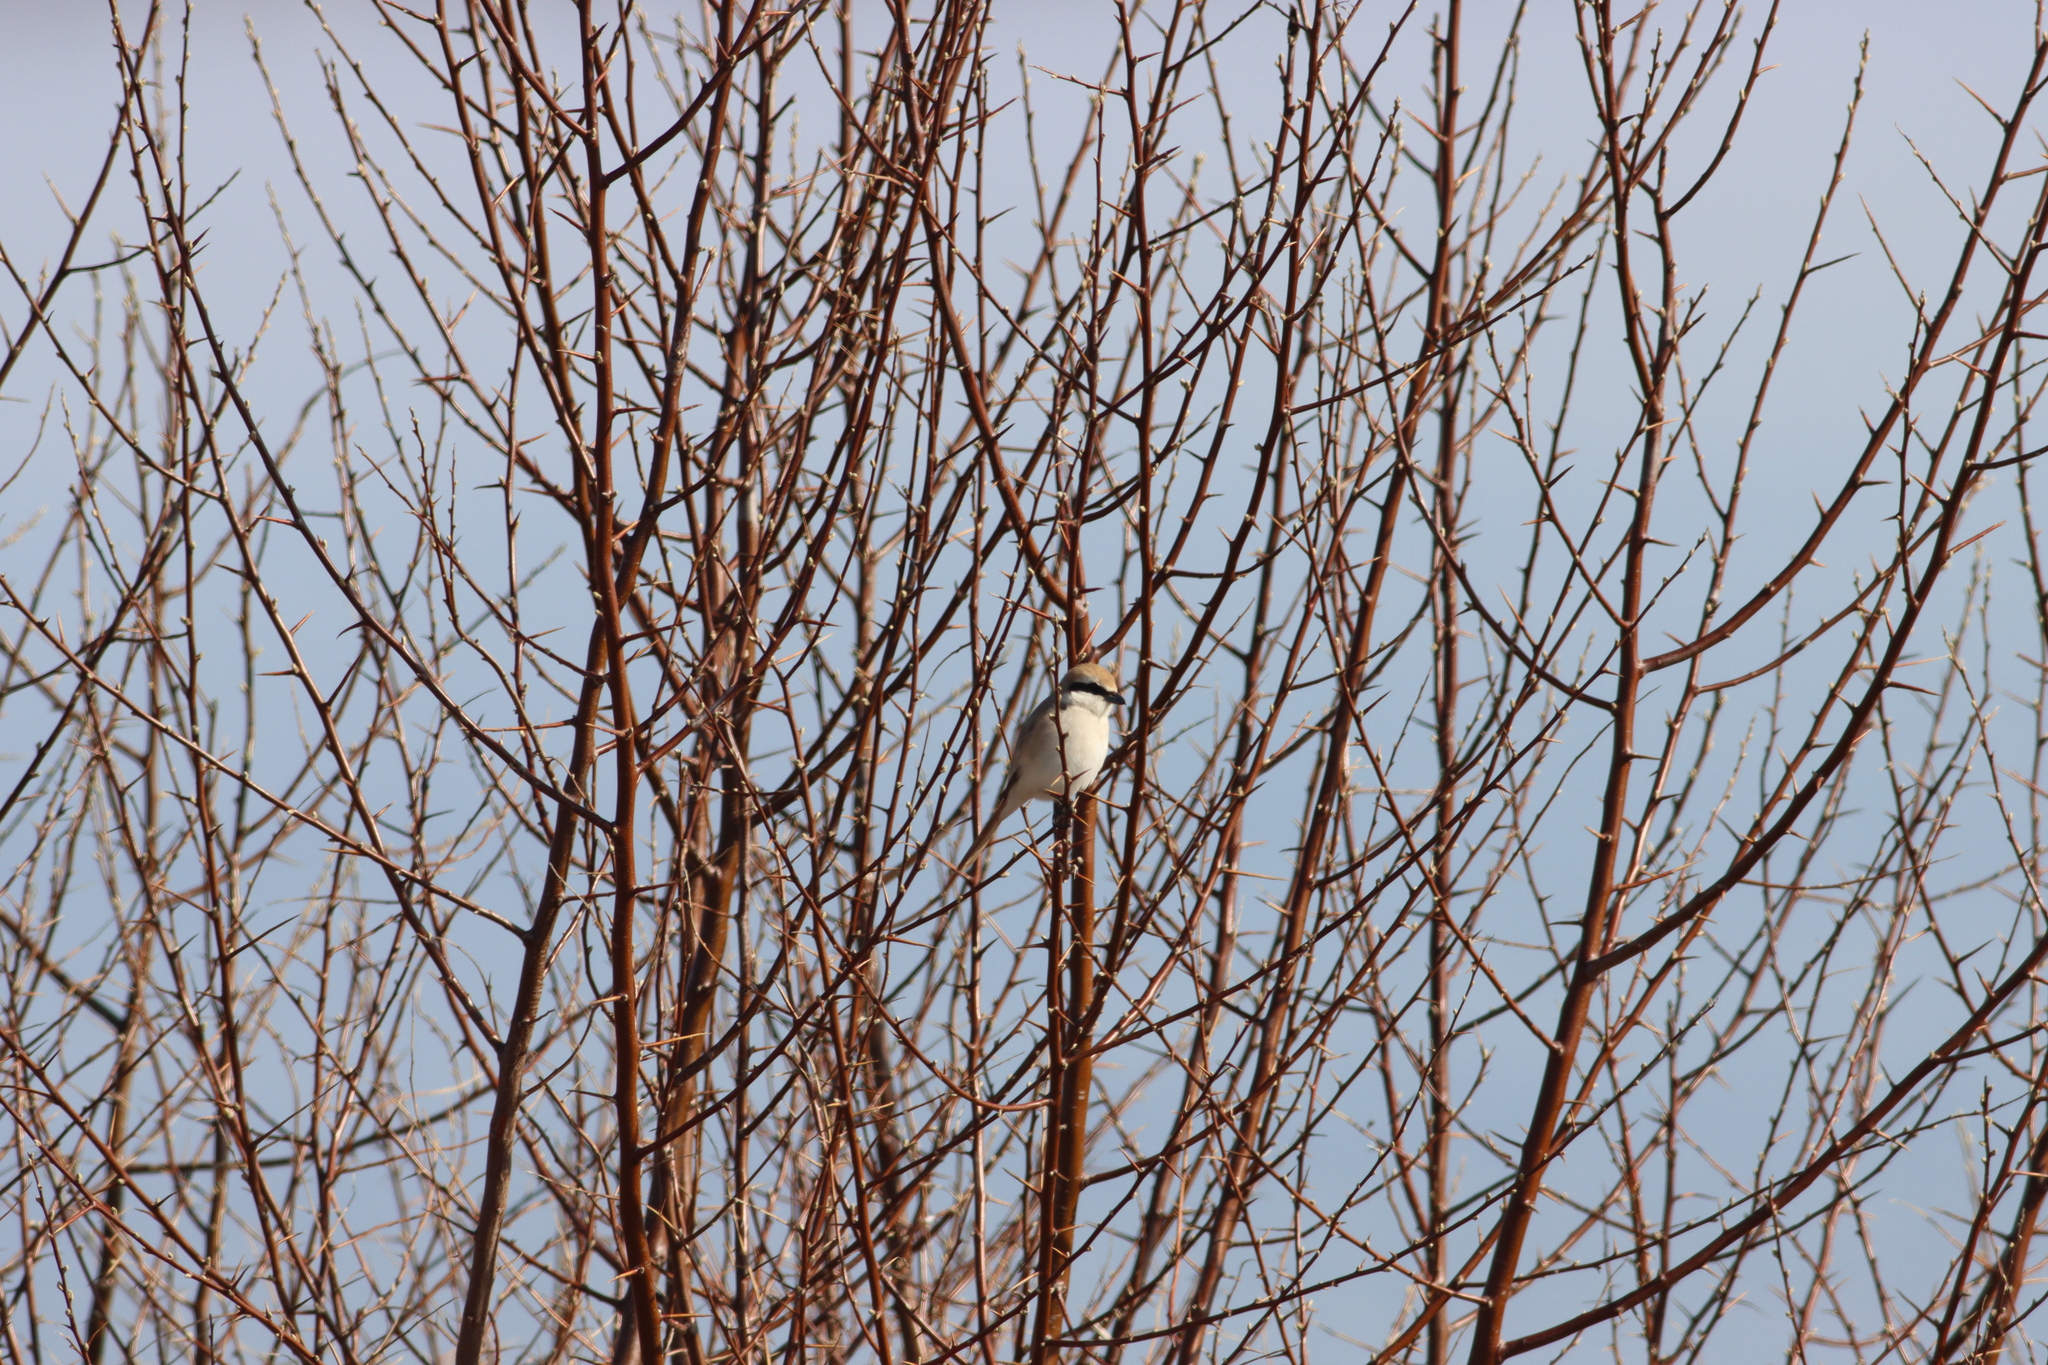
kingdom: Animalia
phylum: Chordata
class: Aves
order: Passeriformes
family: Laniidae
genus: Lanius
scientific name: Lanius phoenicuroides
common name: Red-tailed shrike
